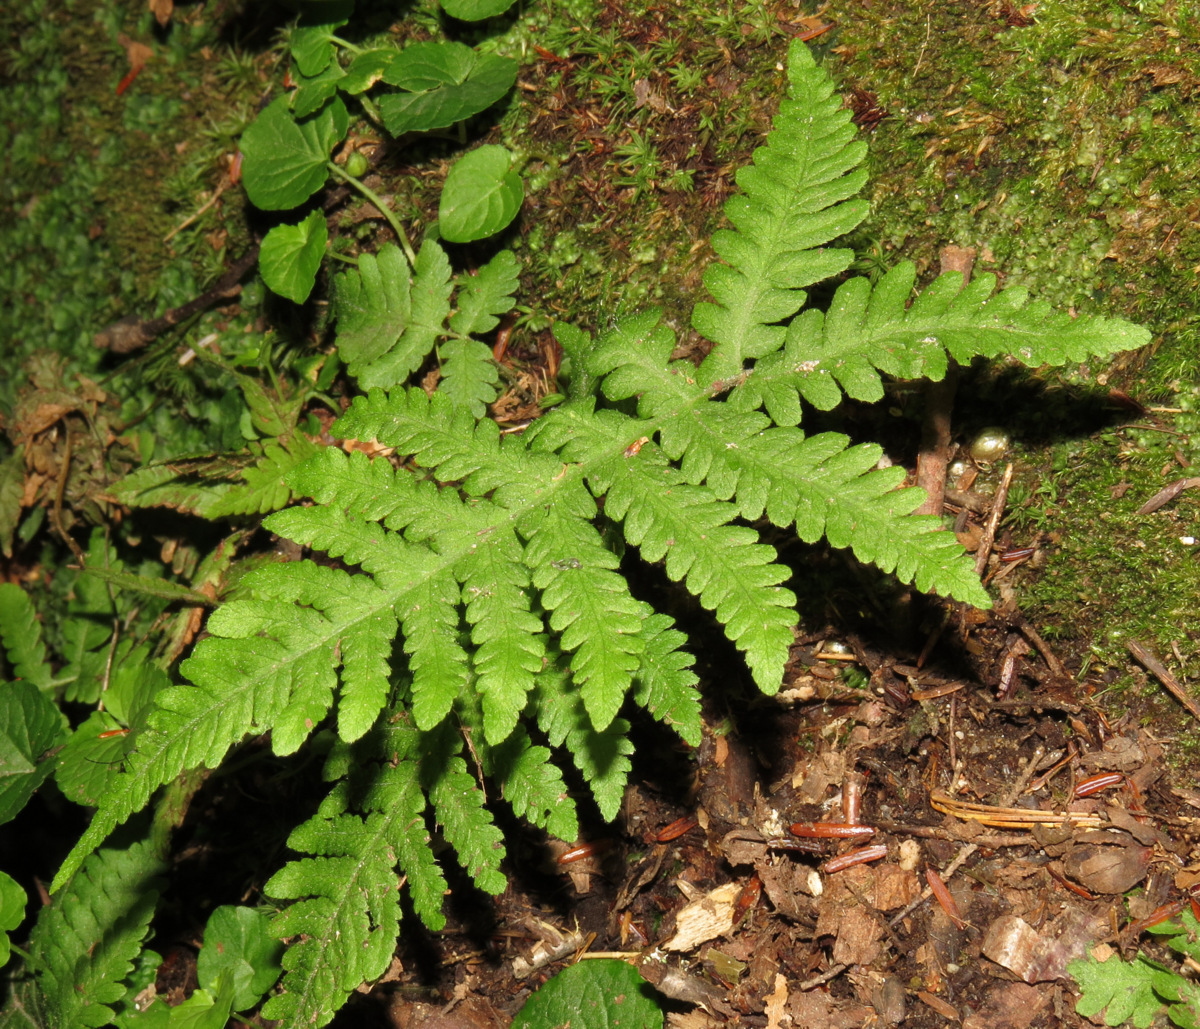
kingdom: Plantae
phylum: Tracheophyta
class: Polypodiopsida
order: Polypodiales
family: Thelypteridaceae
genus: Phegopteris
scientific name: Phegopteris connectilis
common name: Beech fern
